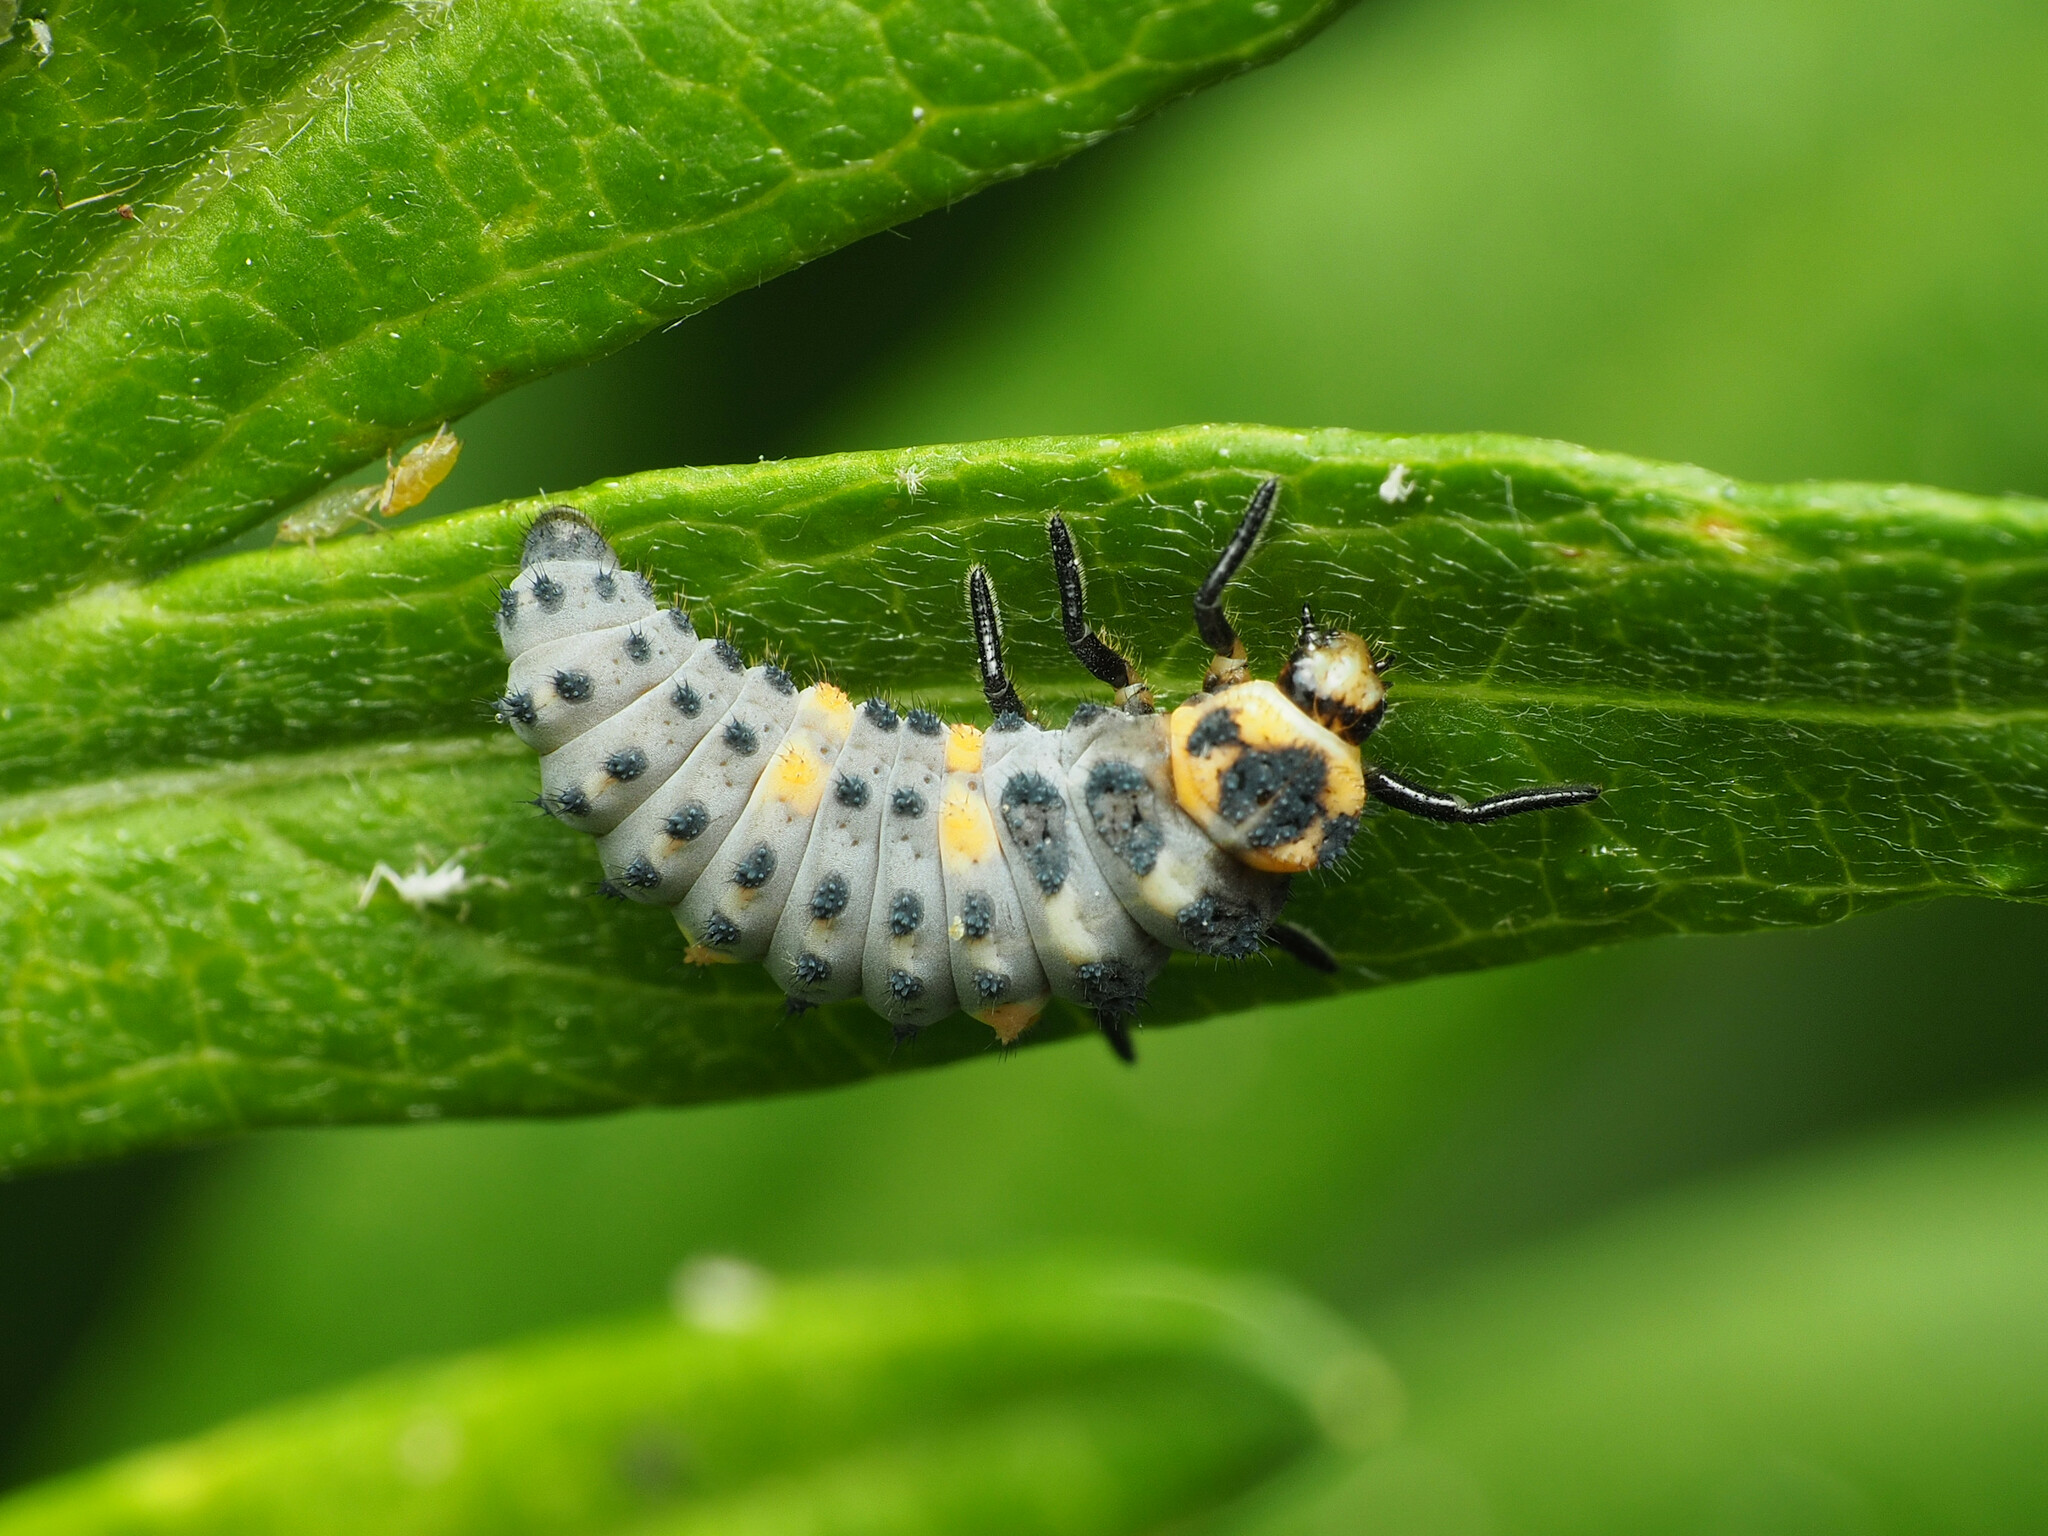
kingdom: Animalia
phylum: Arthropoda
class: Insecta
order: Coleoptera
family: Coccinellidae
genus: Coccinella
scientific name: Coccinella septempunctata
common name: Sevenspotted lady beetle
